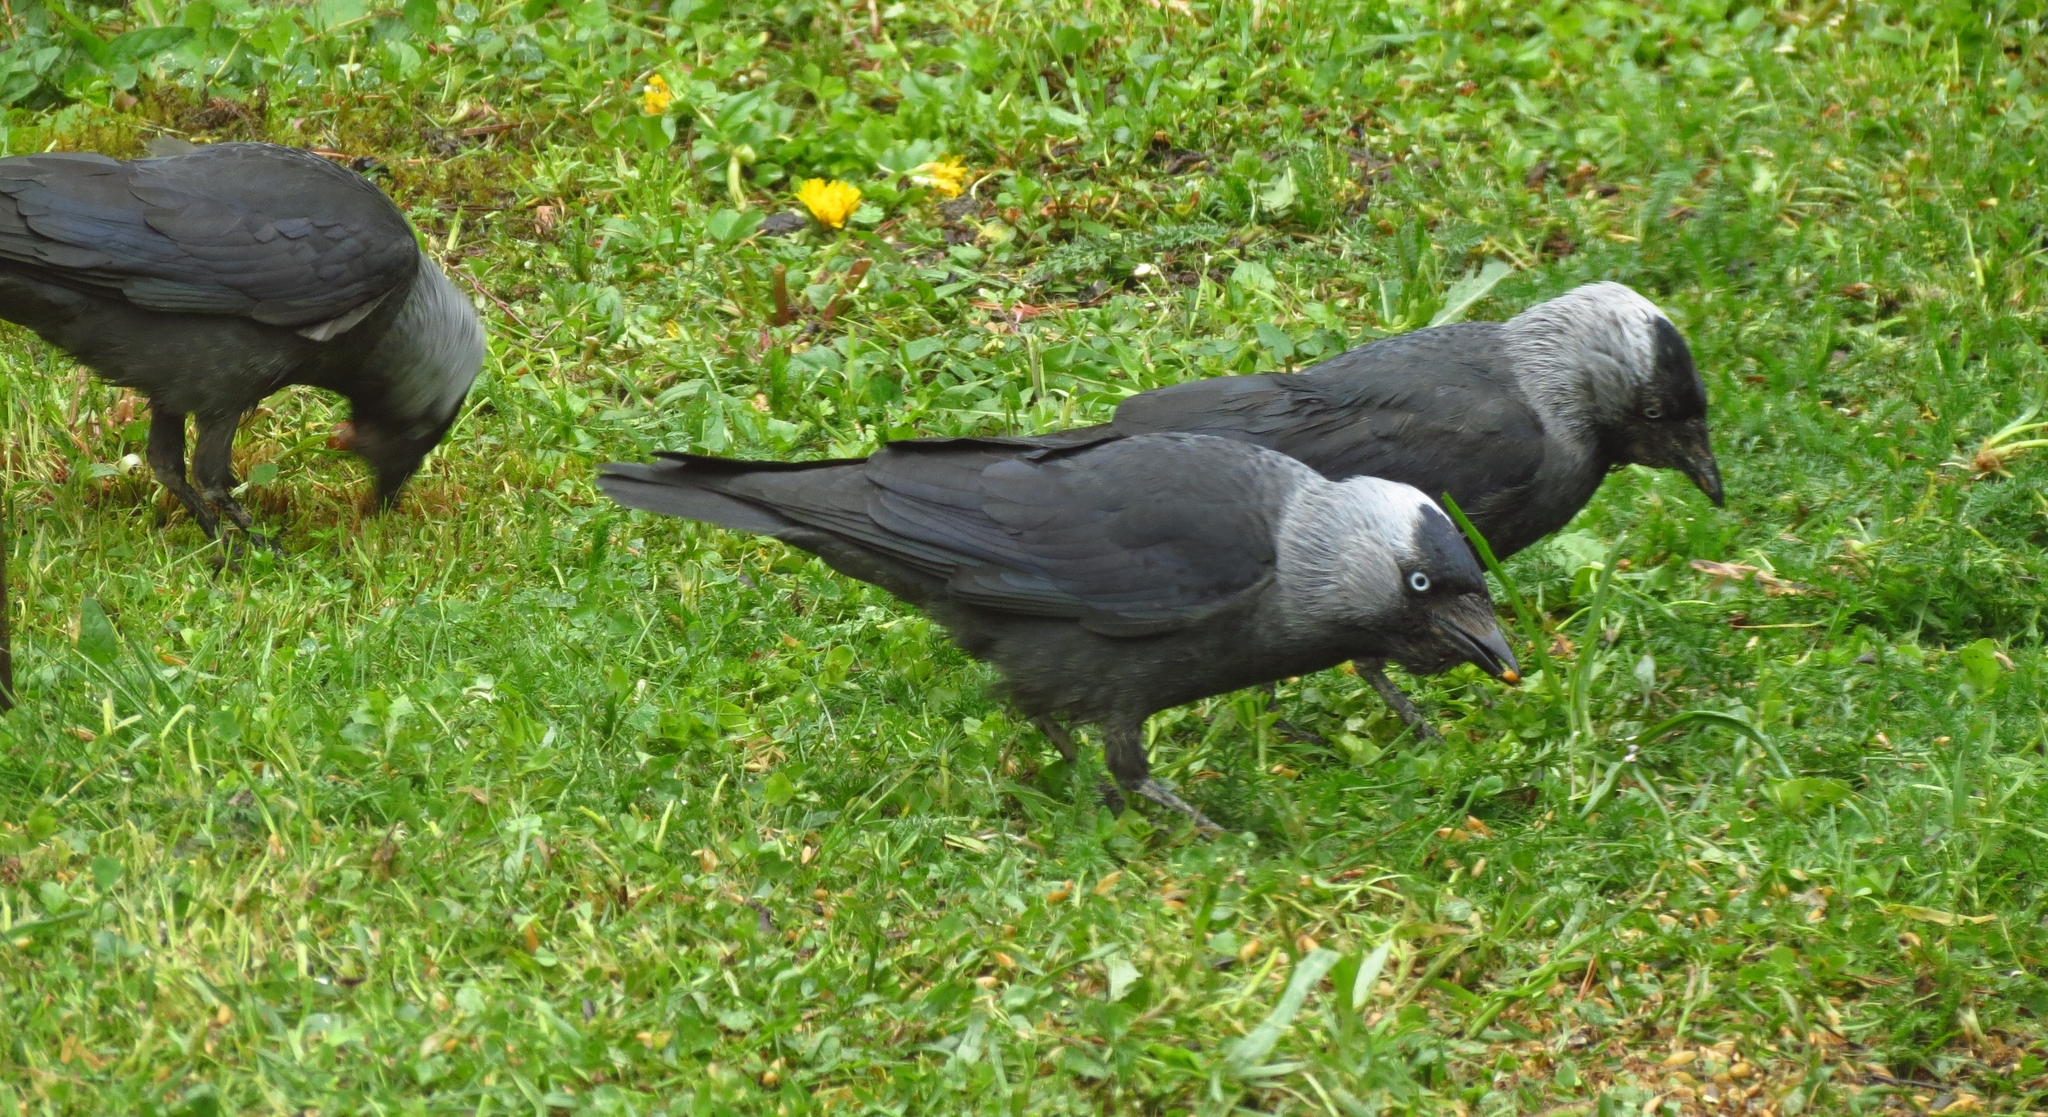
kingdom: Animalia
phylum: Chordata
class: Aves
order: Passeriformes
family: Corvidae
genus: Coloeus
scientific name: Coloeus monedula
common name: Western jackdaw
